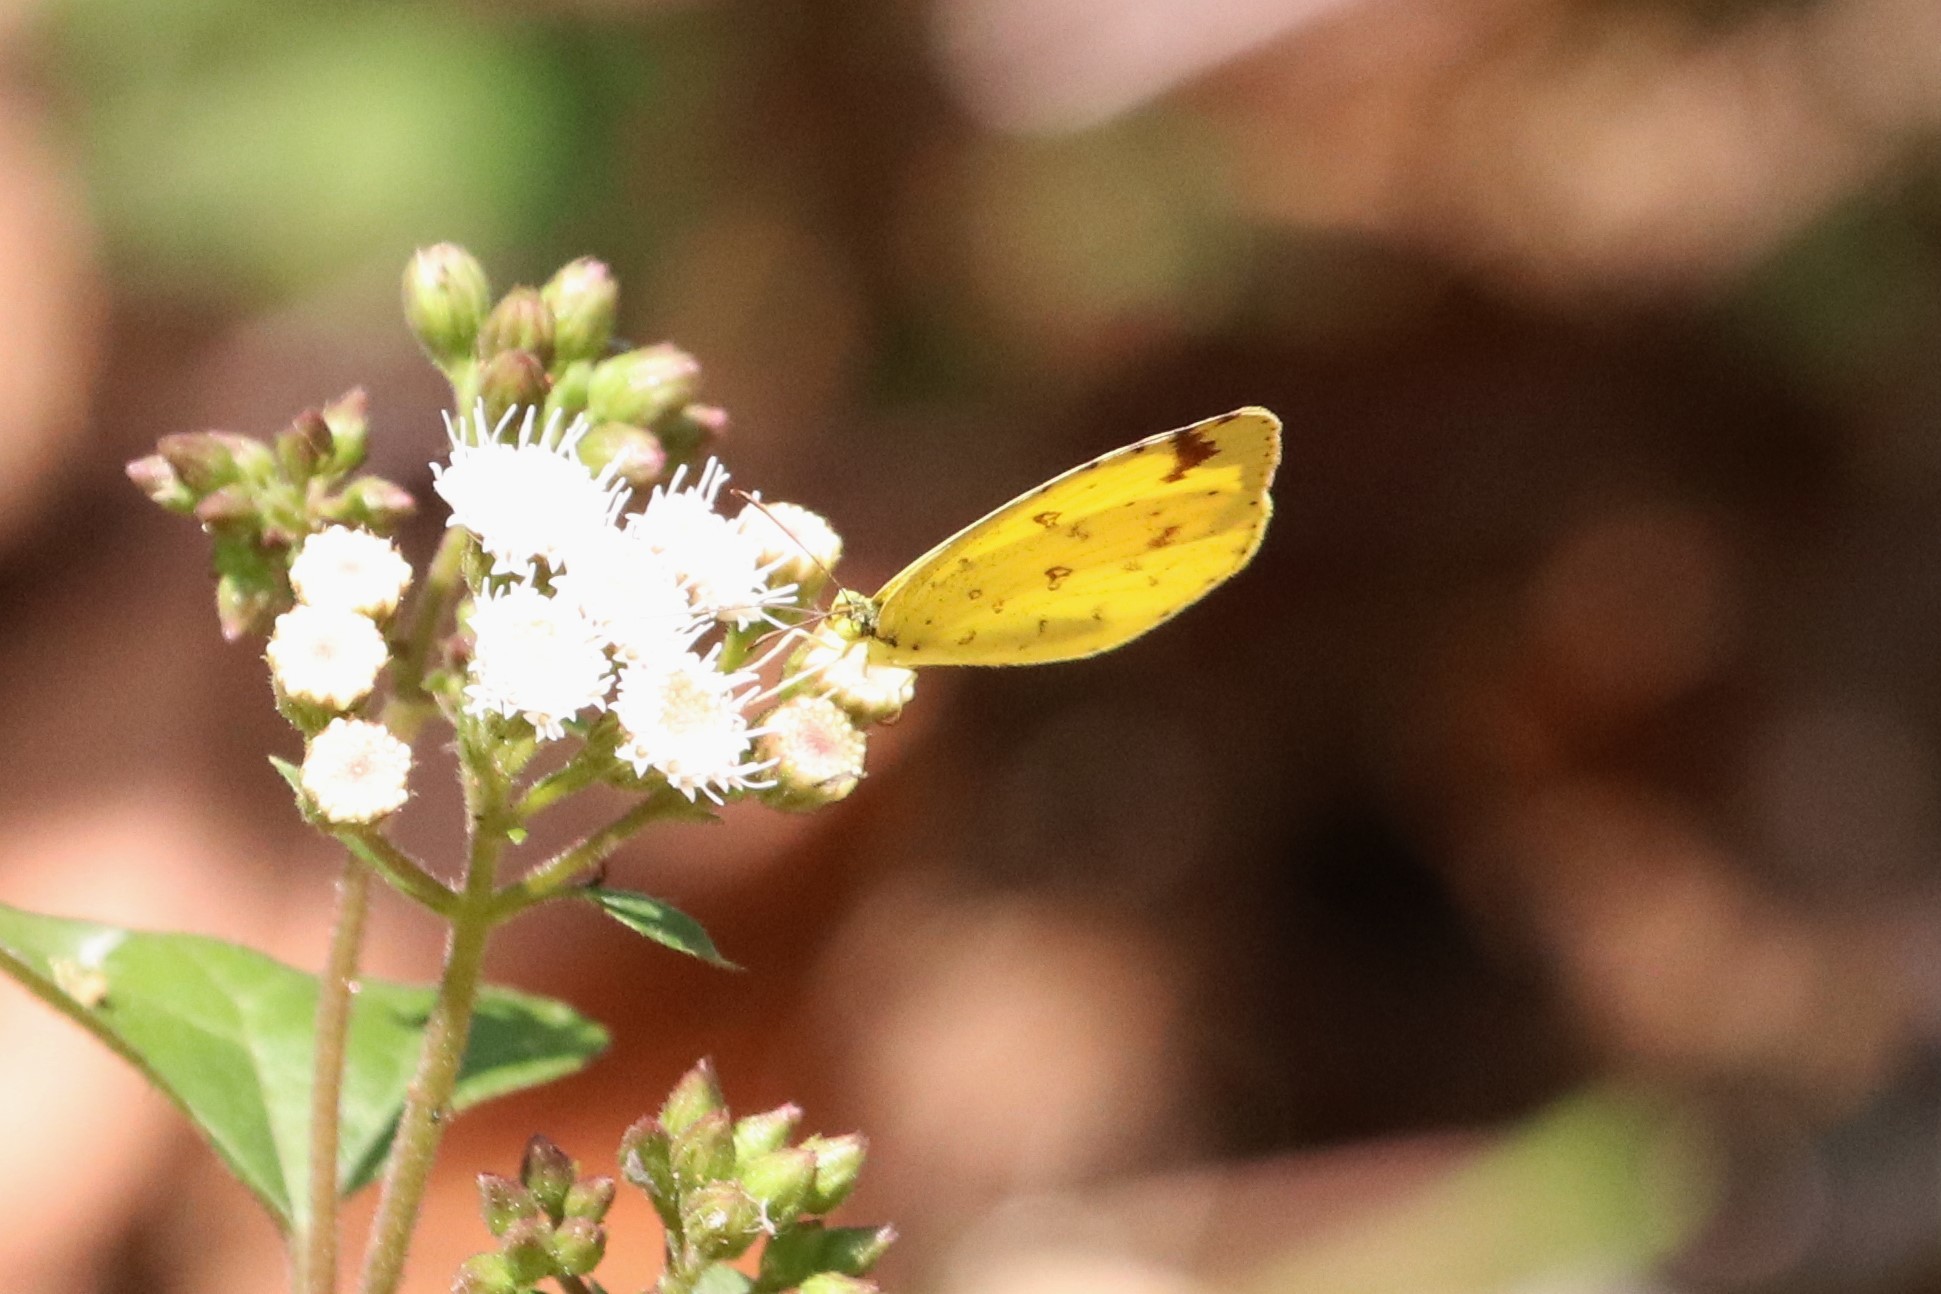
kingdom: Animalia
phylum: Arthropoda
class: Insecta
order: Lepidoptera
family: Pieridae
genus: Eurema
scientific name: Eurema hecabe
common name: Pale grass yellow
